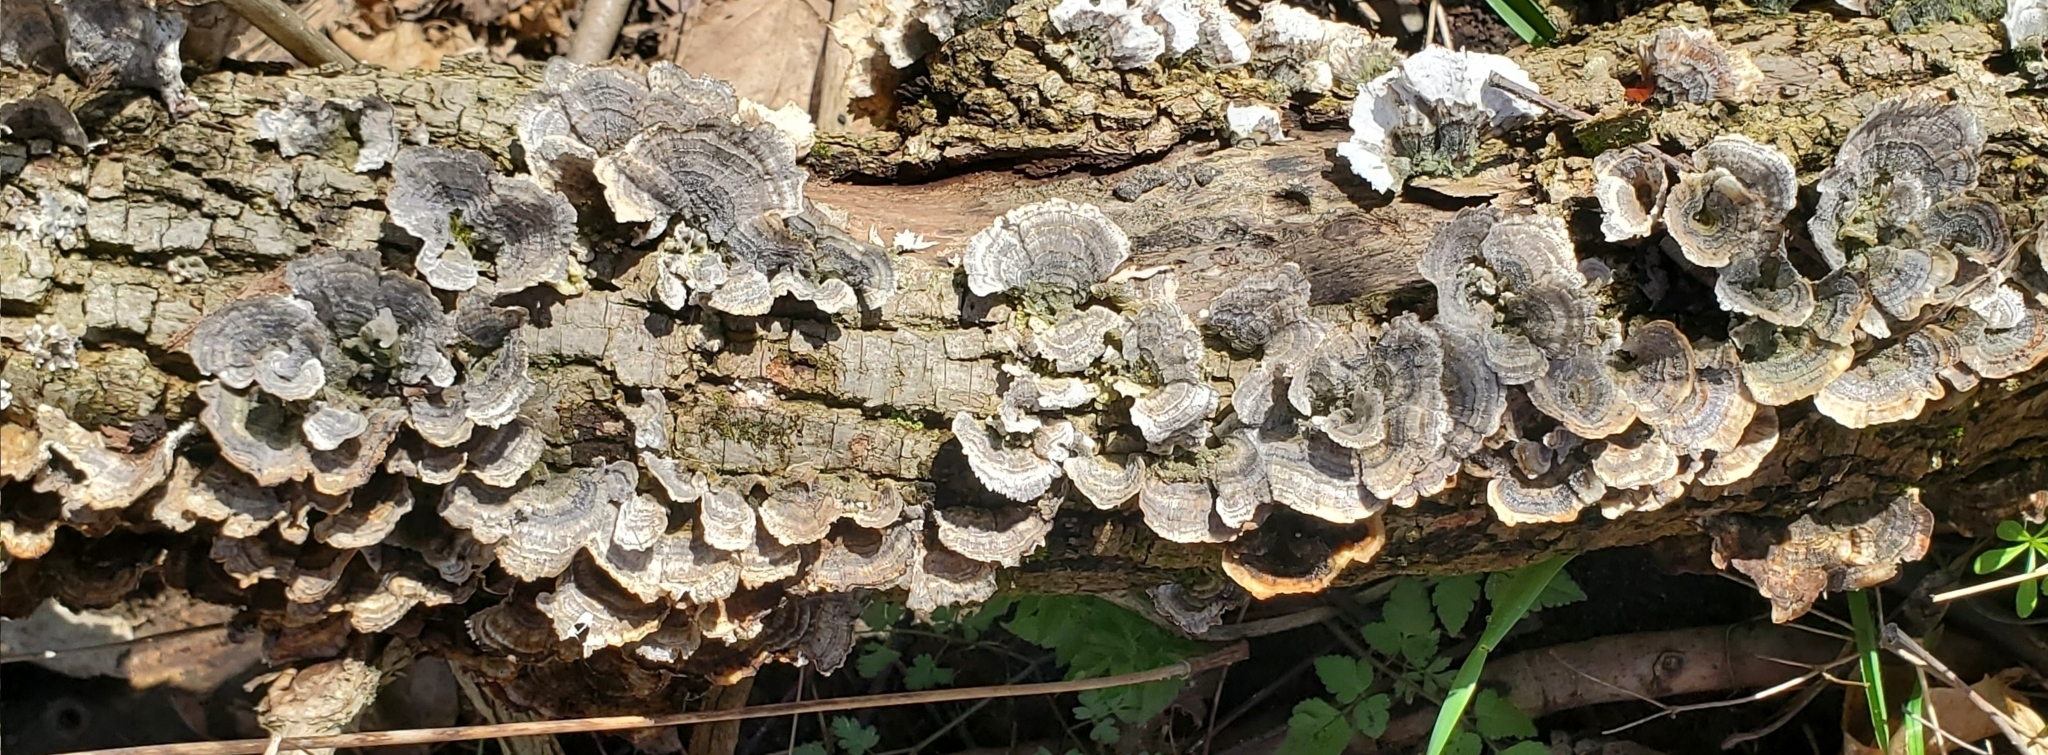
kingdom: Fungi
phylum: Basidiomycota
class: Agaricomycetes
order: Polyporales
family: Polyporaceae
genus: Trametes
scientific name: Trametes versicolor
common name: Turkeytail
